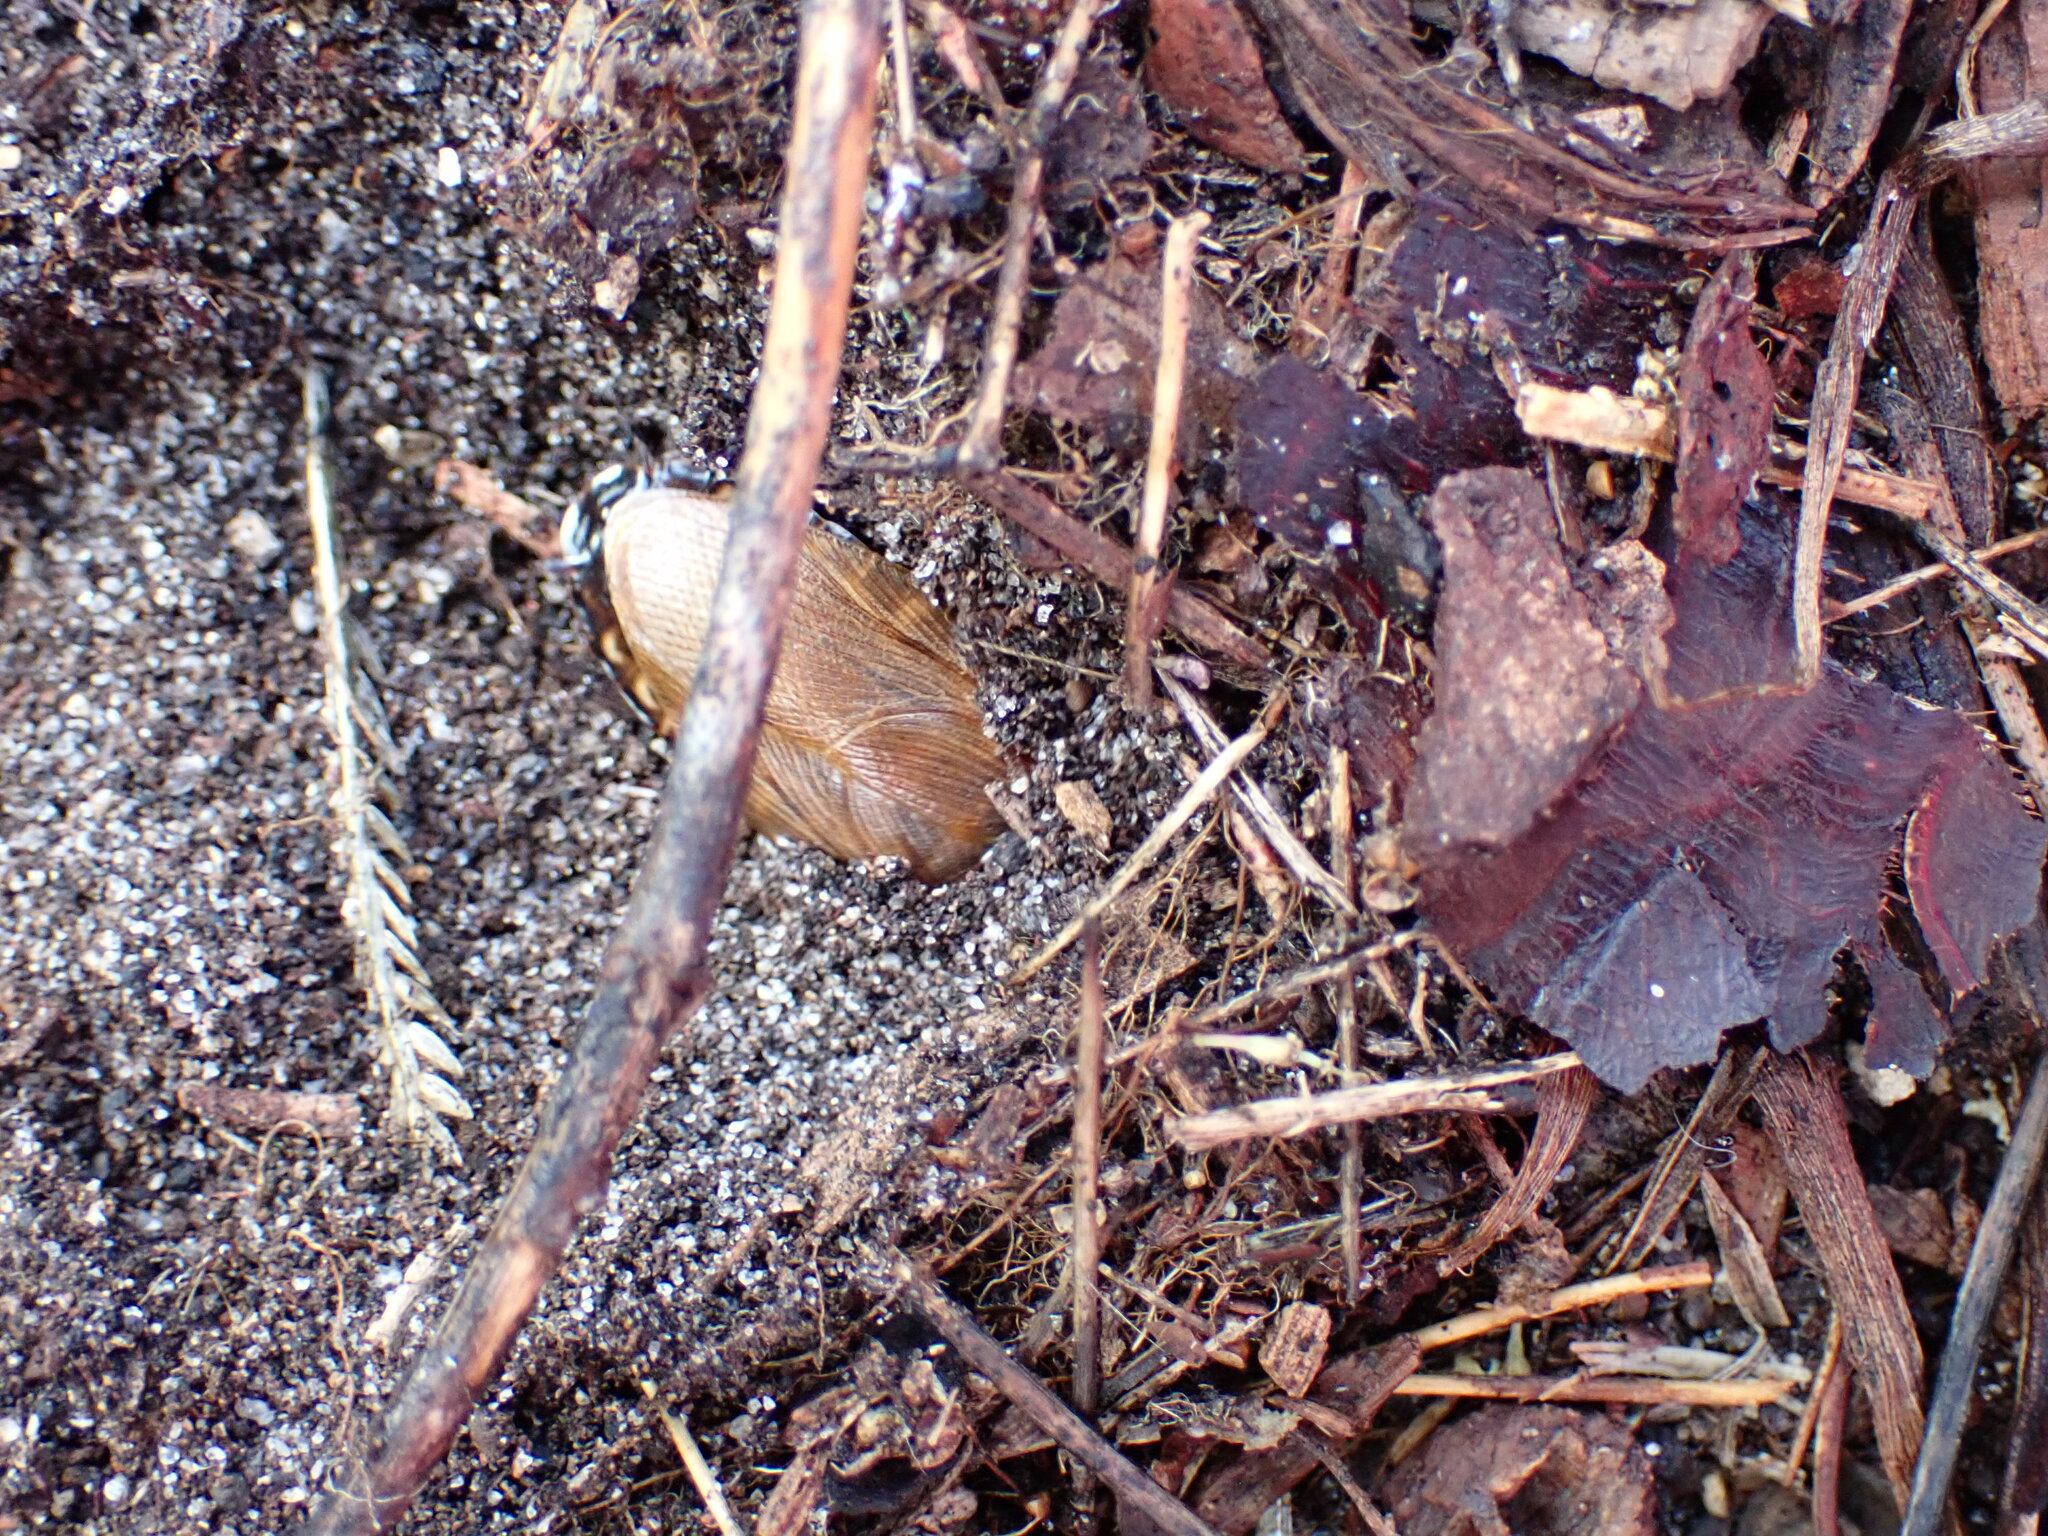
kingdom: Animalia
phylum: Arthropoda
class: Insecta
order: Blattodea
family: Blaberidae
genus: Pycnoscelus
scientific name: Pycnoscelus surinamensis
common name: Surinam cockroach
